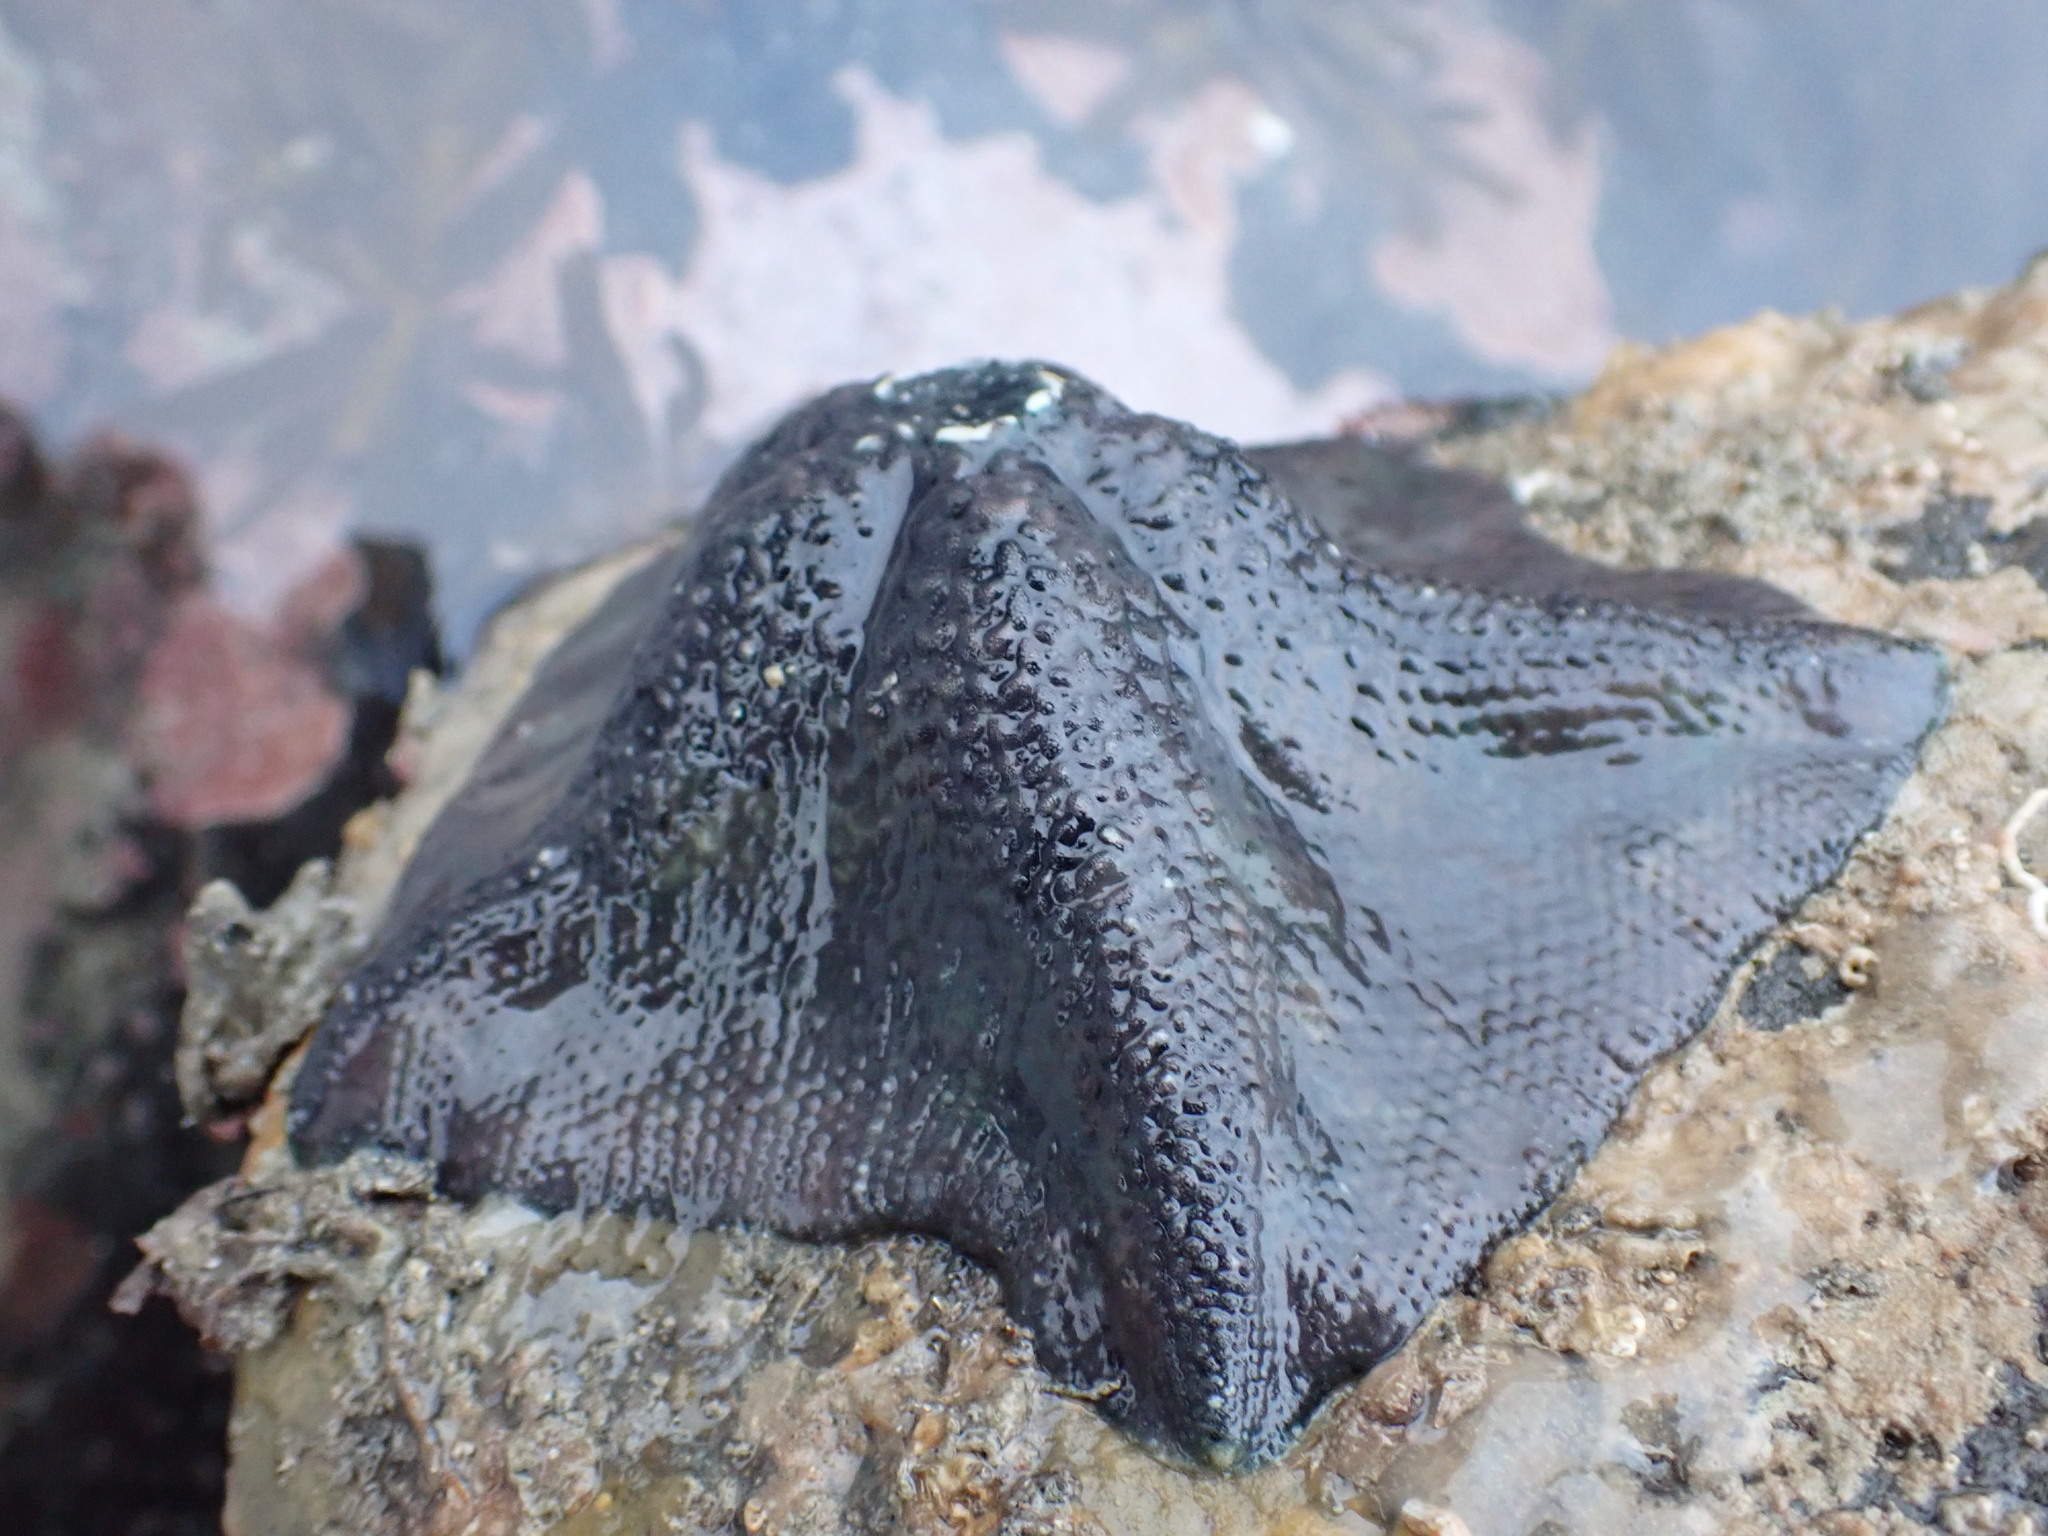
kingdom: Animalia
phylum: Echinodermata
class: Asteroidea
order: Valvatida
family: Asterinidae
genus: Stegnaster
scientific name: Stegnaster inflatus
